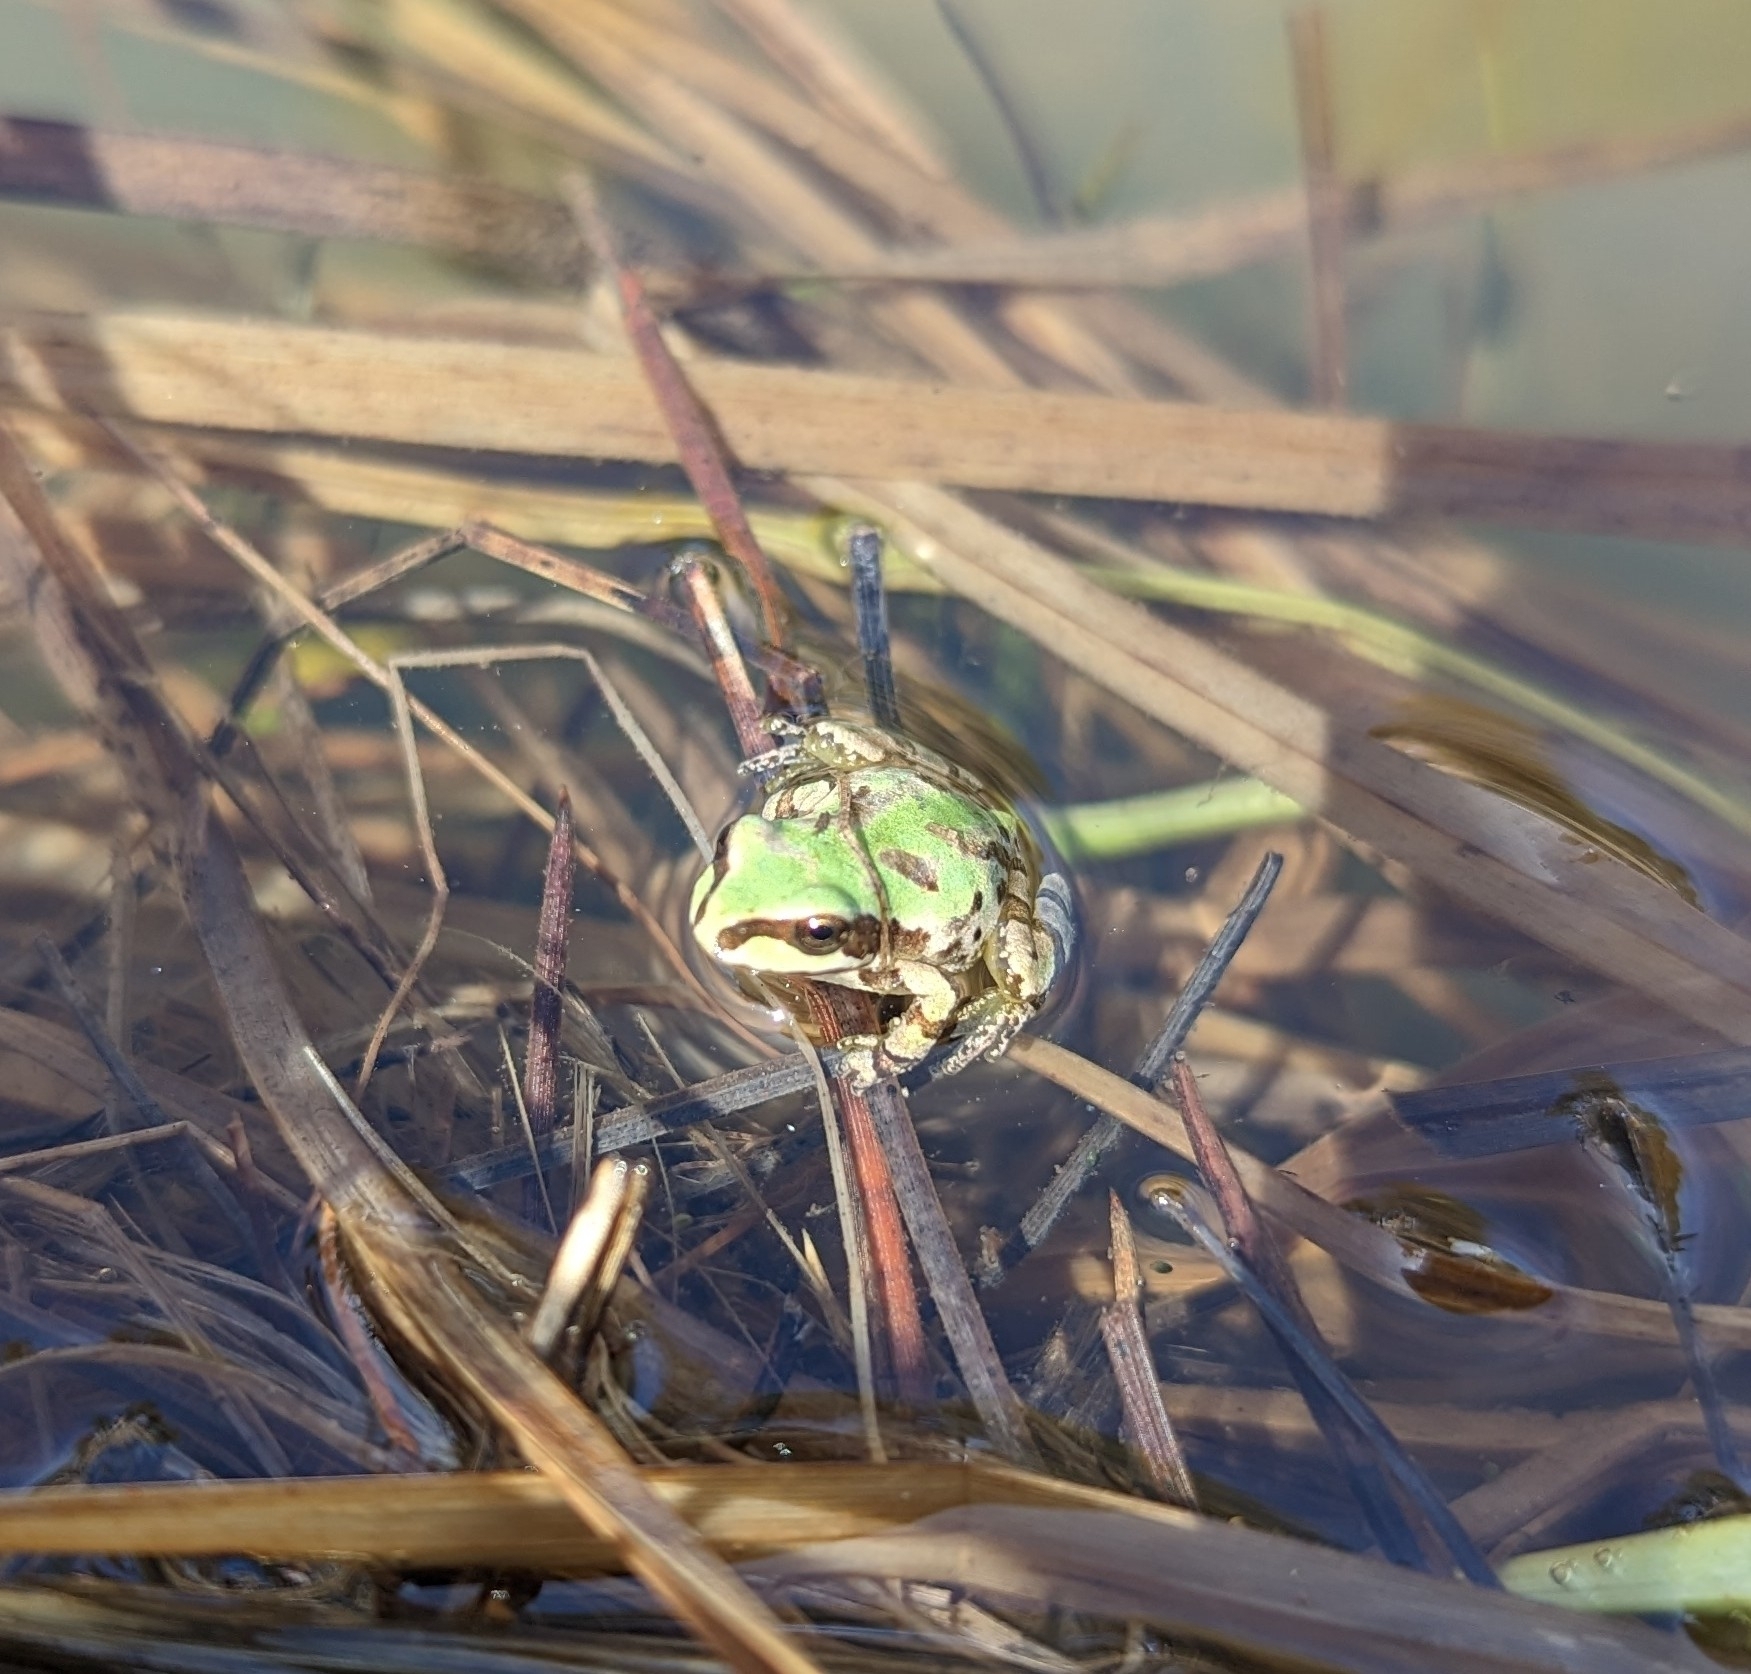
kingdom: Animalia
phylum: Chordata
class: Amphibia
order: Anura
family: Hylidae
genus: Dryophytes
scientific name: Dryophytes wrightorum
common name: Arizona treefrog
